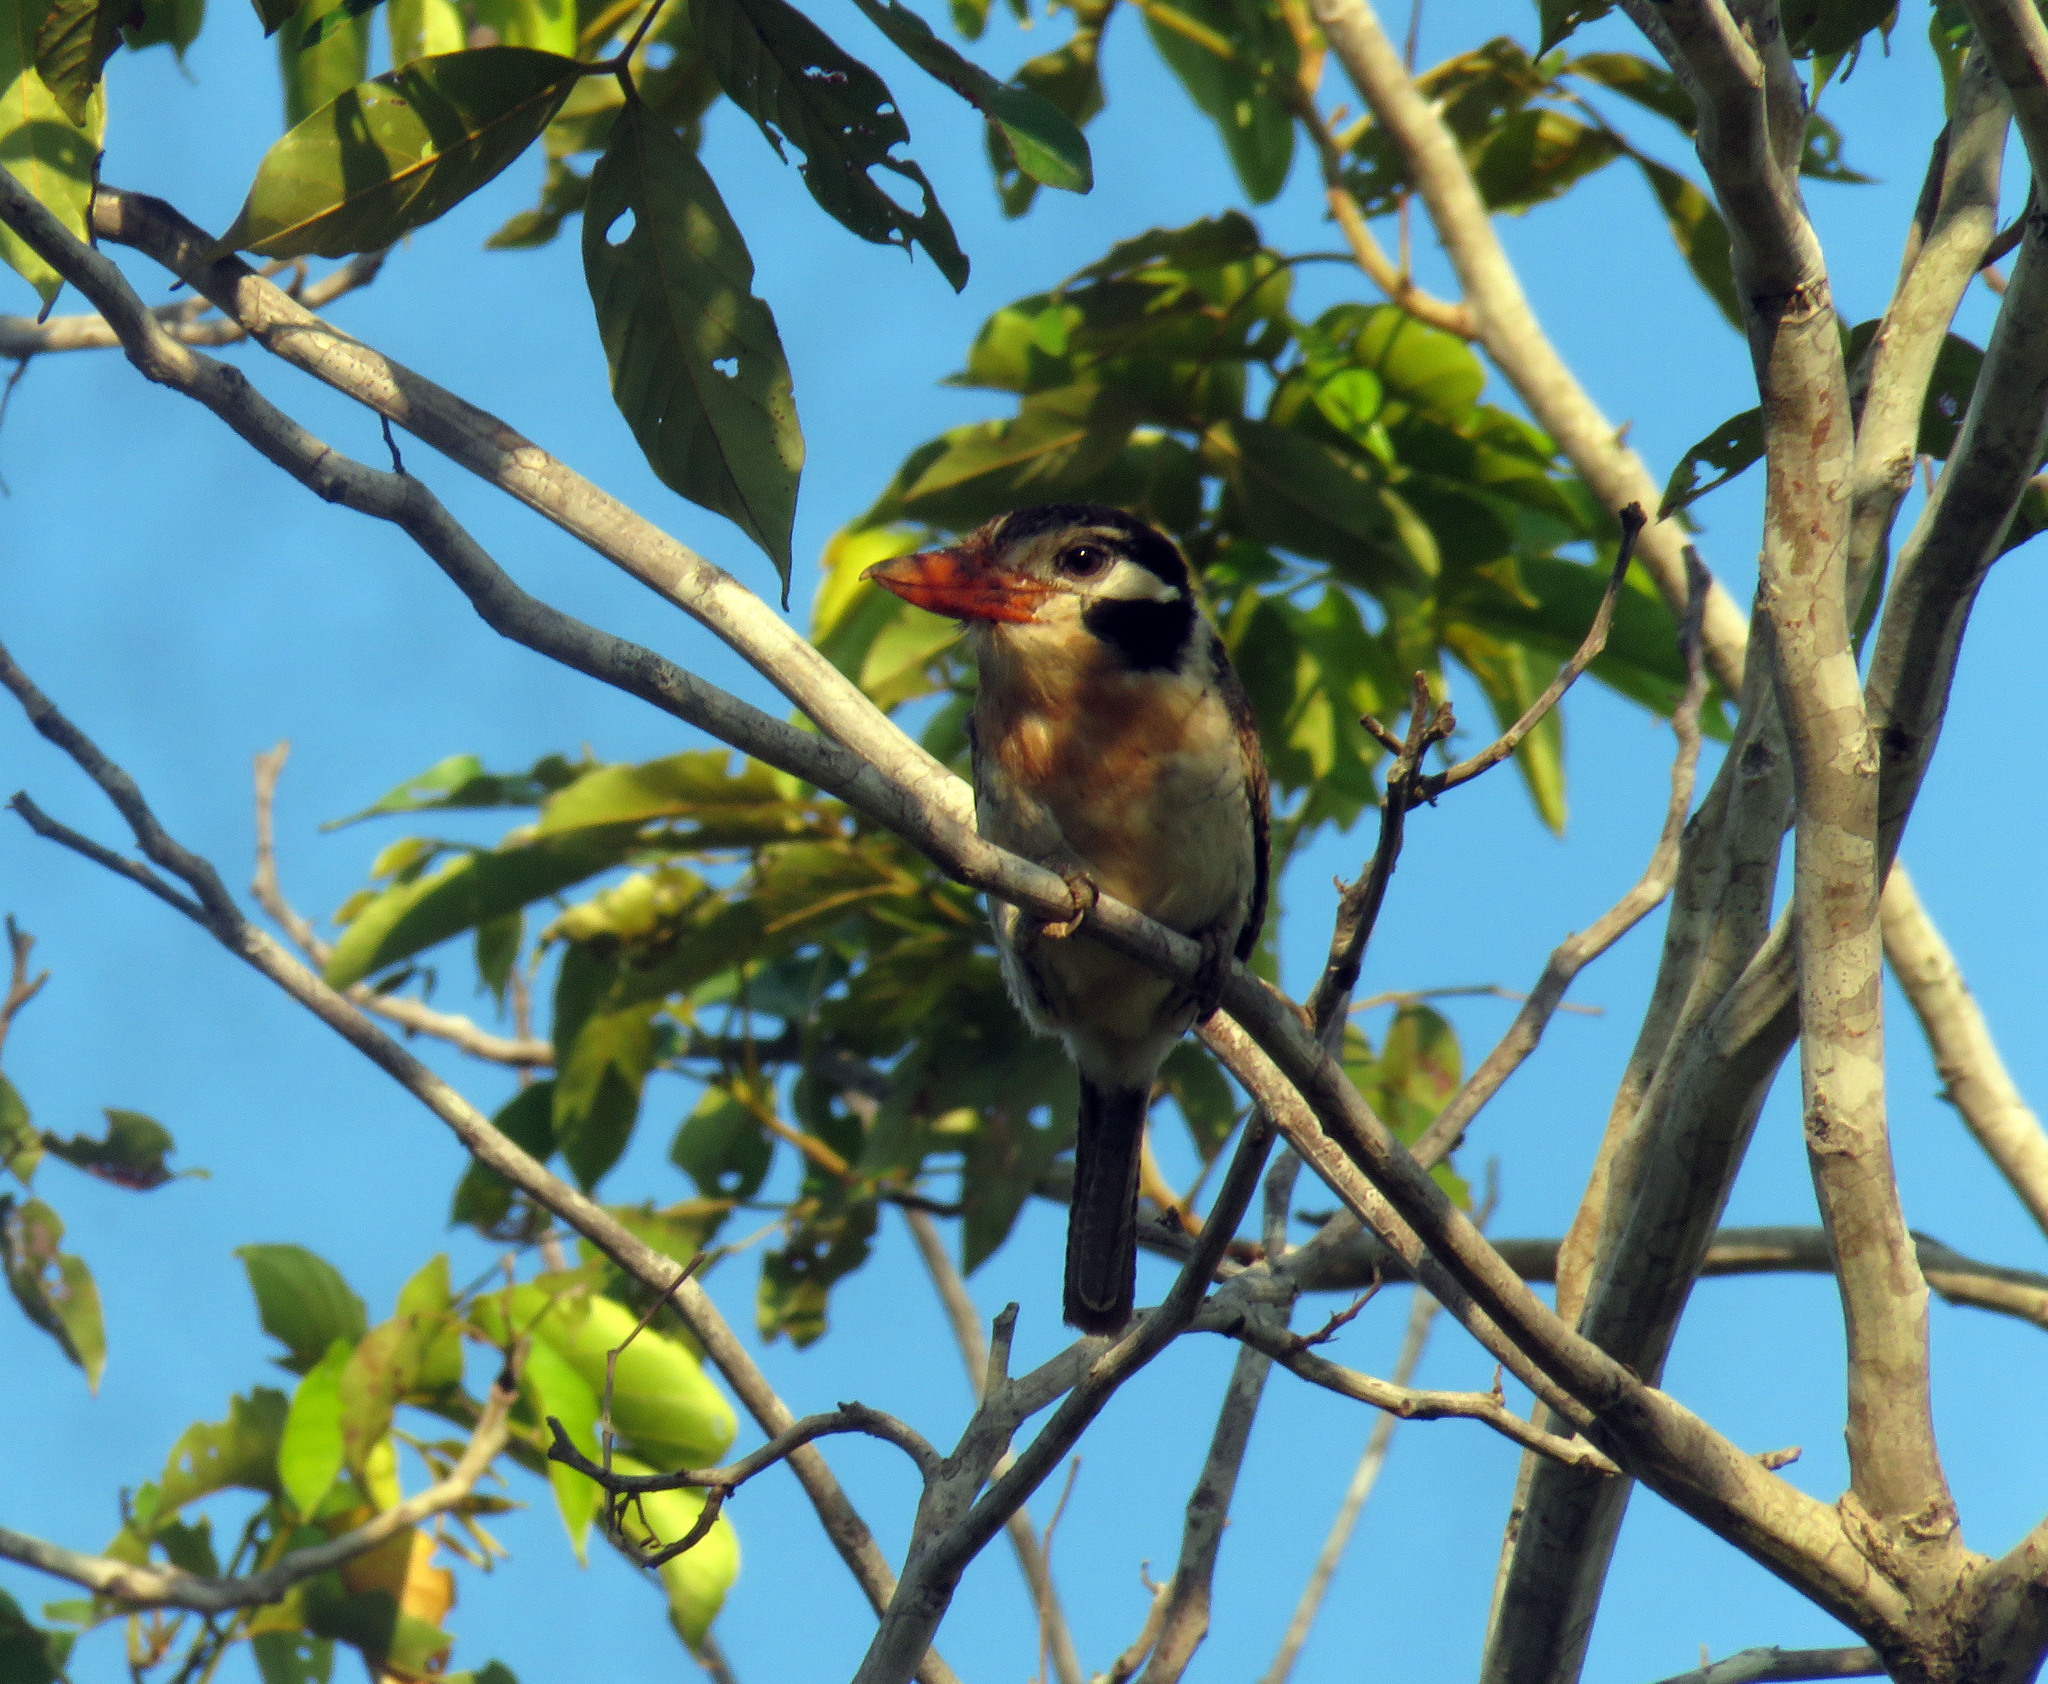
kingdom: Animalia
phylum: Chordata
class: Aves
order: Piciformes
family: Bucconidae
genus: Nystalus
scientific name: Nystalus chacuru
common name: White-eared puffbird
